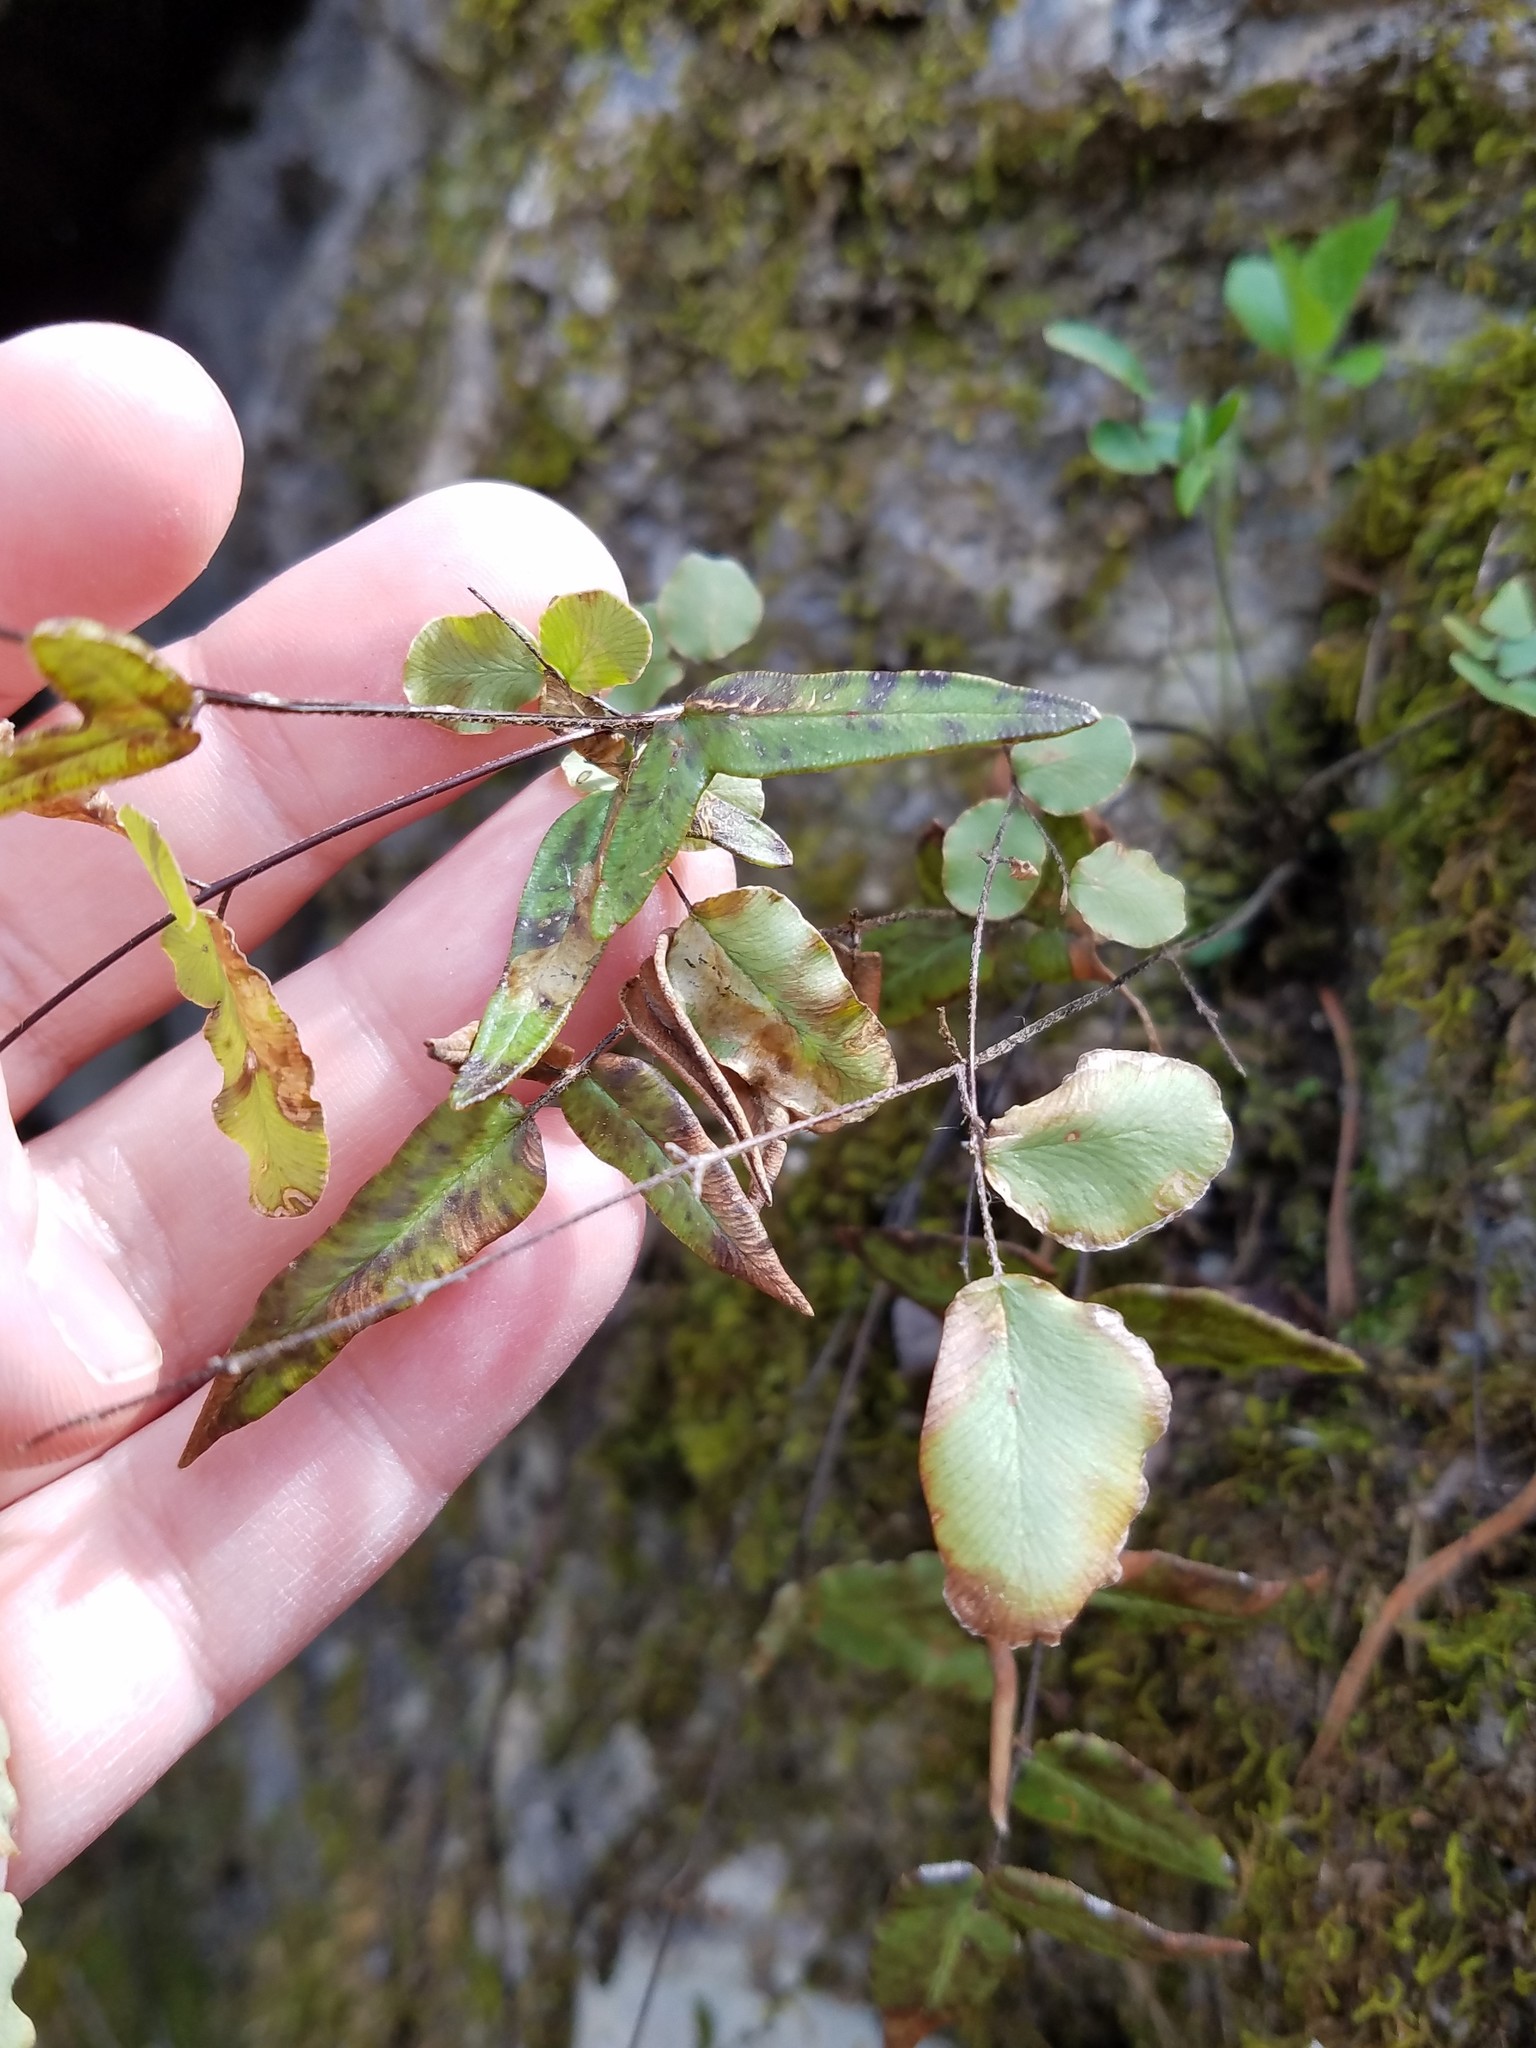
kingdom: Plantae
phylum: Tracheophyta
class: Polypodiopsida
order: Polypodiales
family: Pteridaceae
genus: Pellaea
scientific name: Pellaea atropurpurea
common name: Hairy cliffbrake
